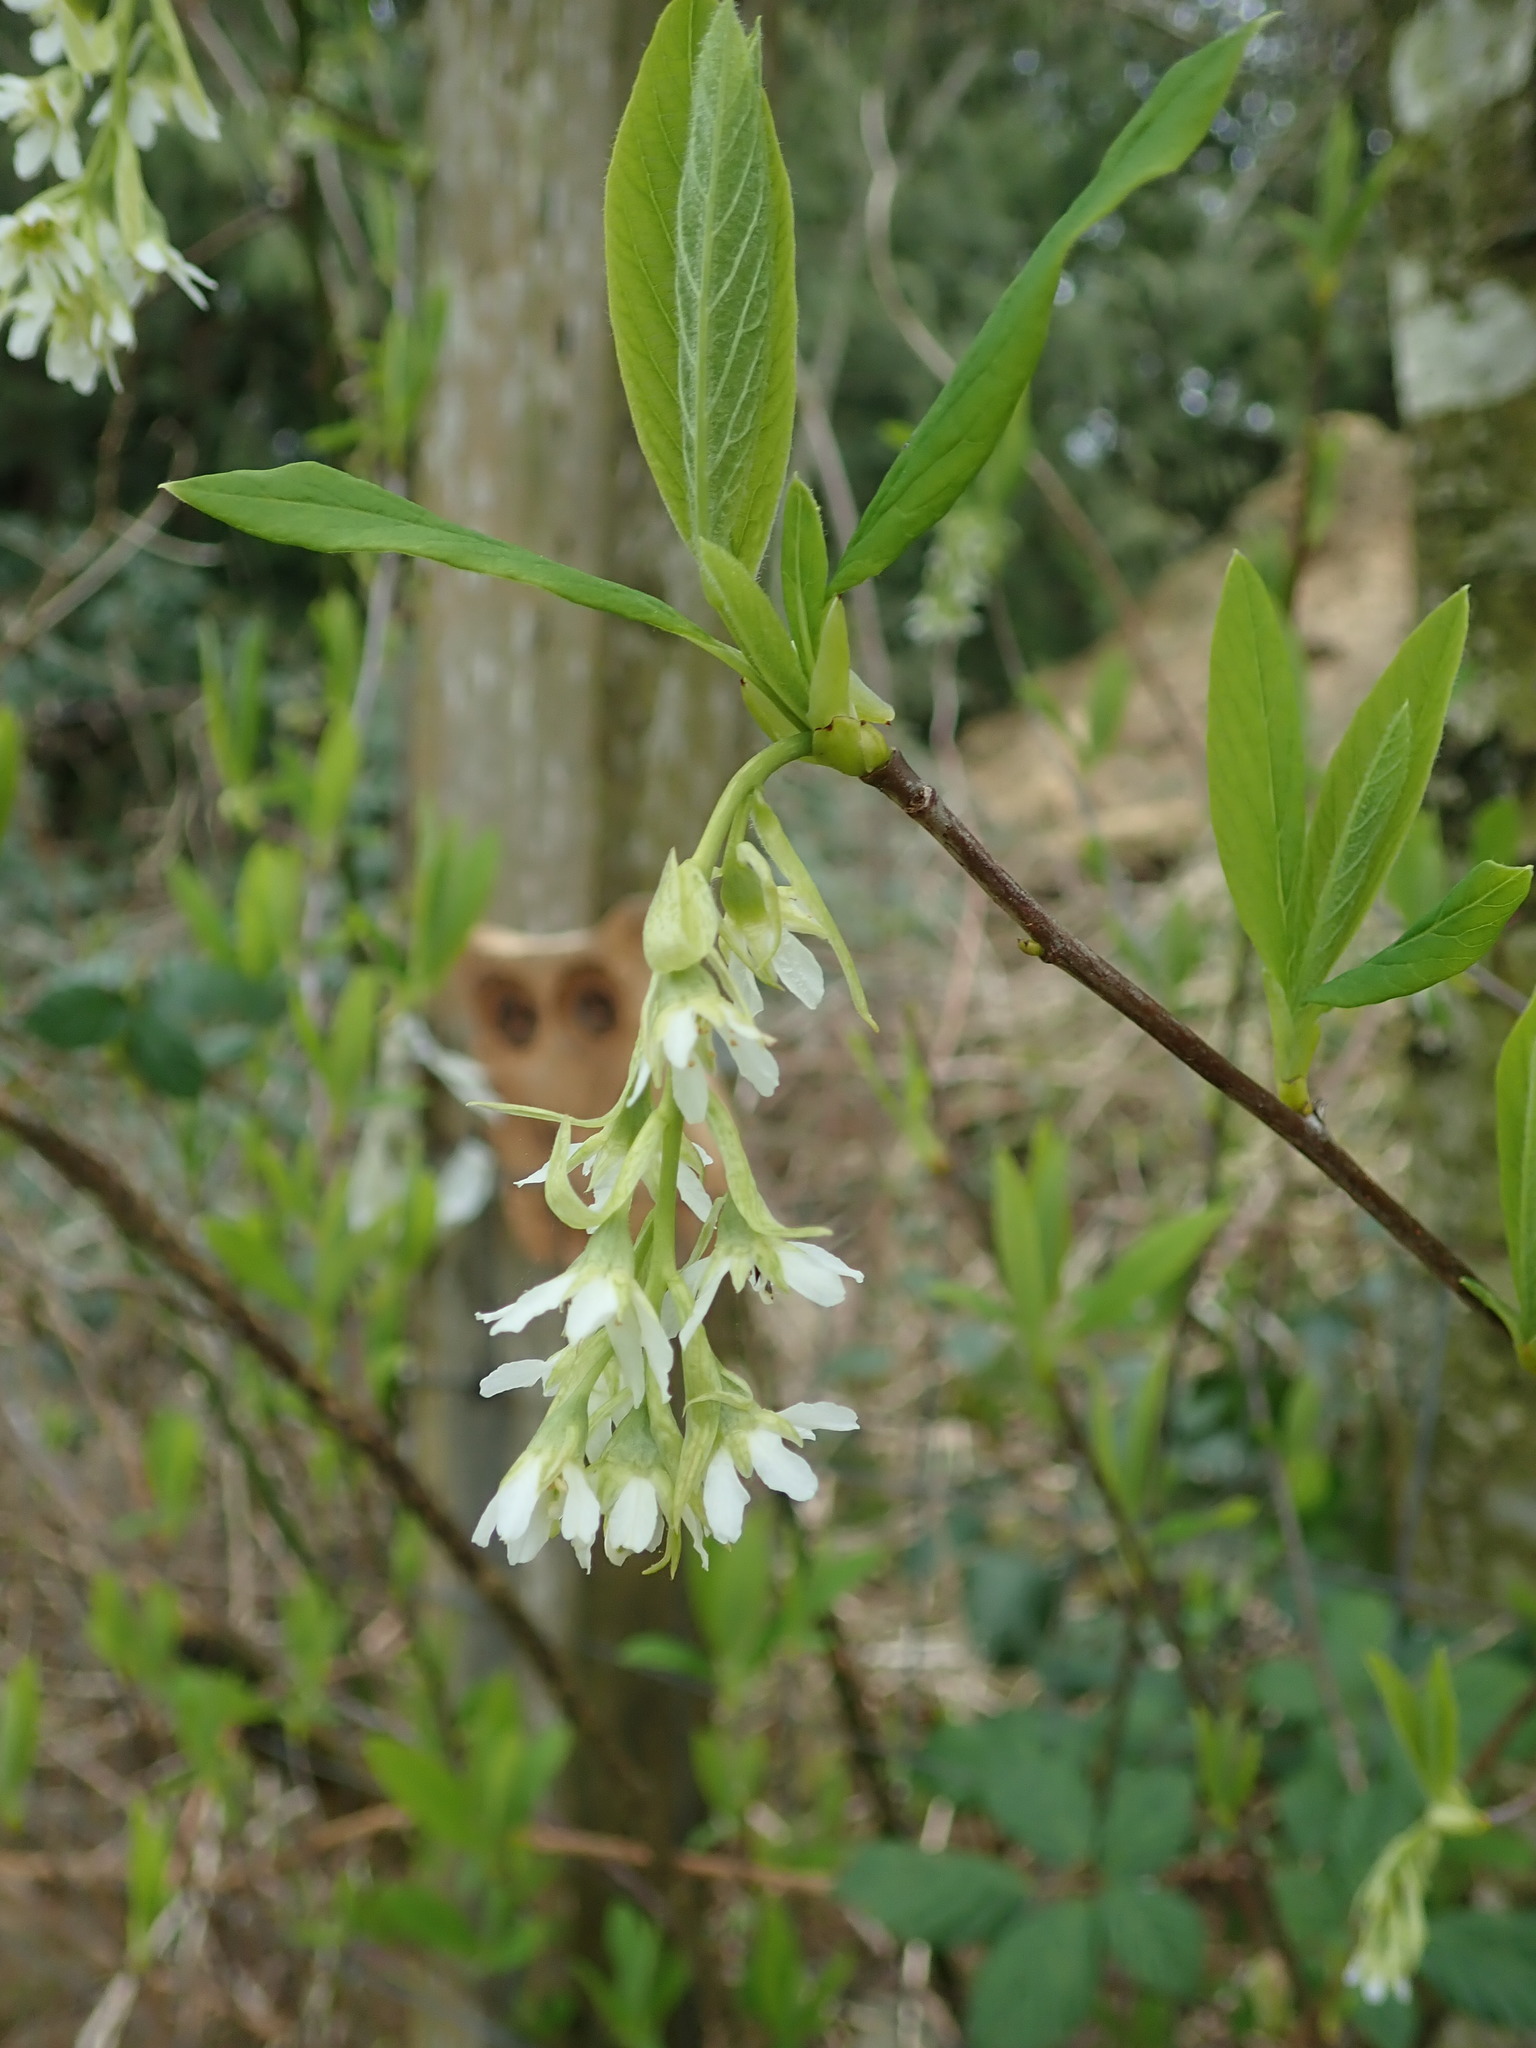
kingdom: Plantae
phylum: Tracheophyta
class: Magnoliopsida
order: Rosales
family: Rosaceae
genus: Oemleria
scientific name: Oemleria cerasiformis
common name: Osoberry
